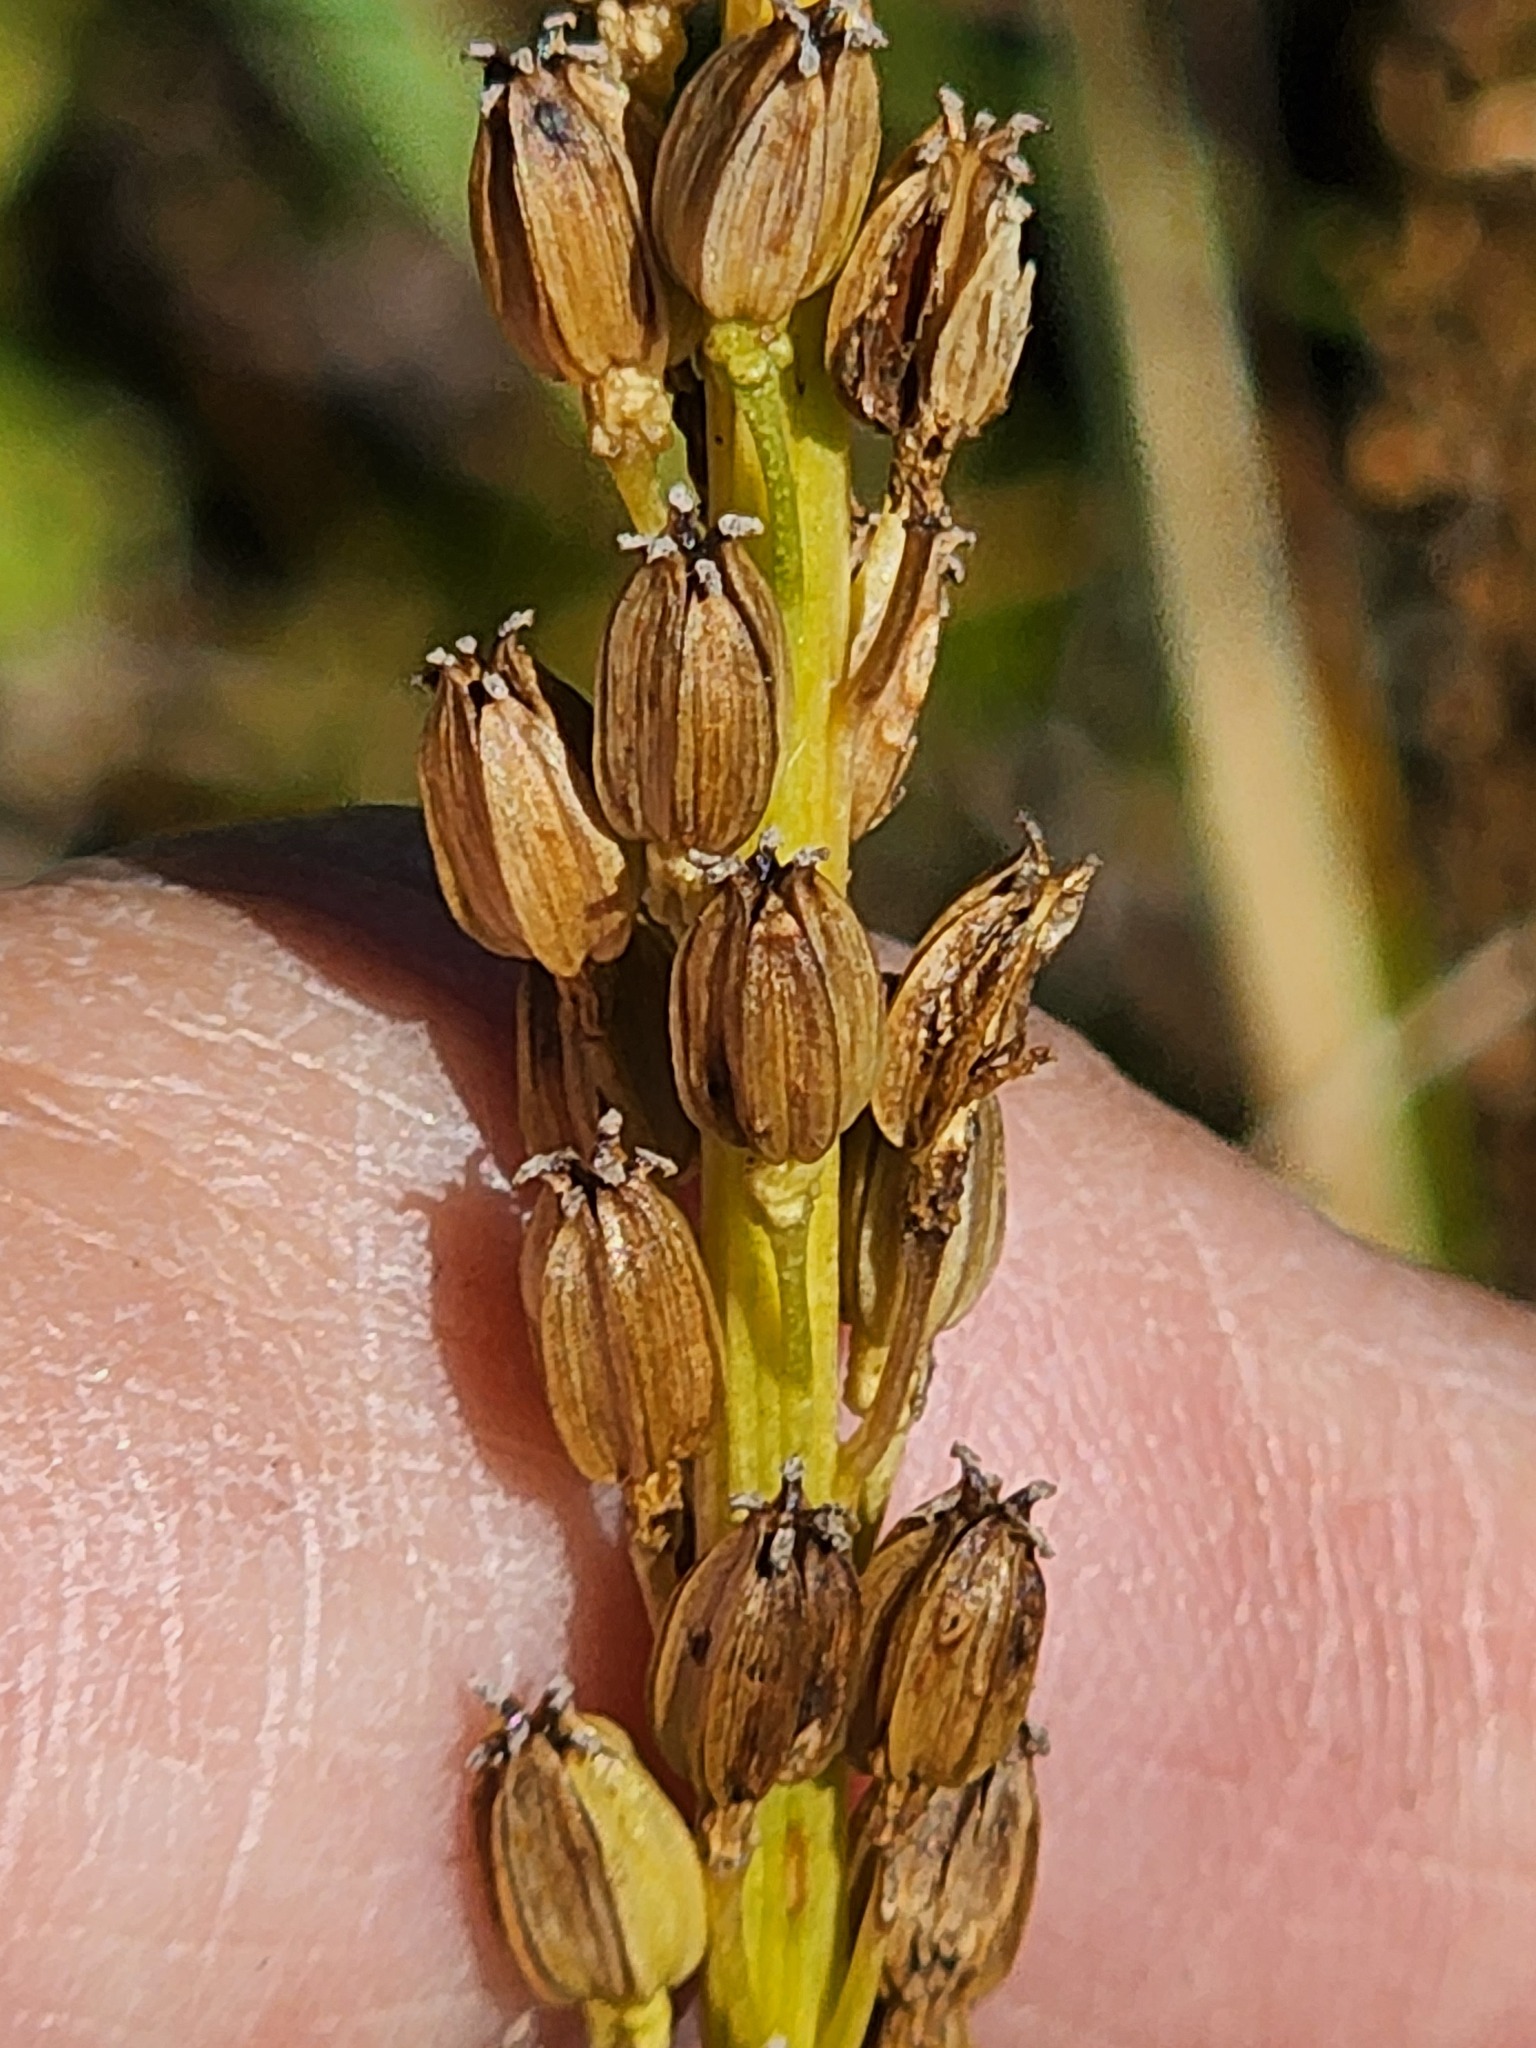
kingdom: Plantae
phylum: Tracheophyta
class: Liliopsida
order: Alismatales
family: Juncaginaceae
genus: Triglochin
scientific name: Triglochin maritima
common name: Sea arrowgrass
